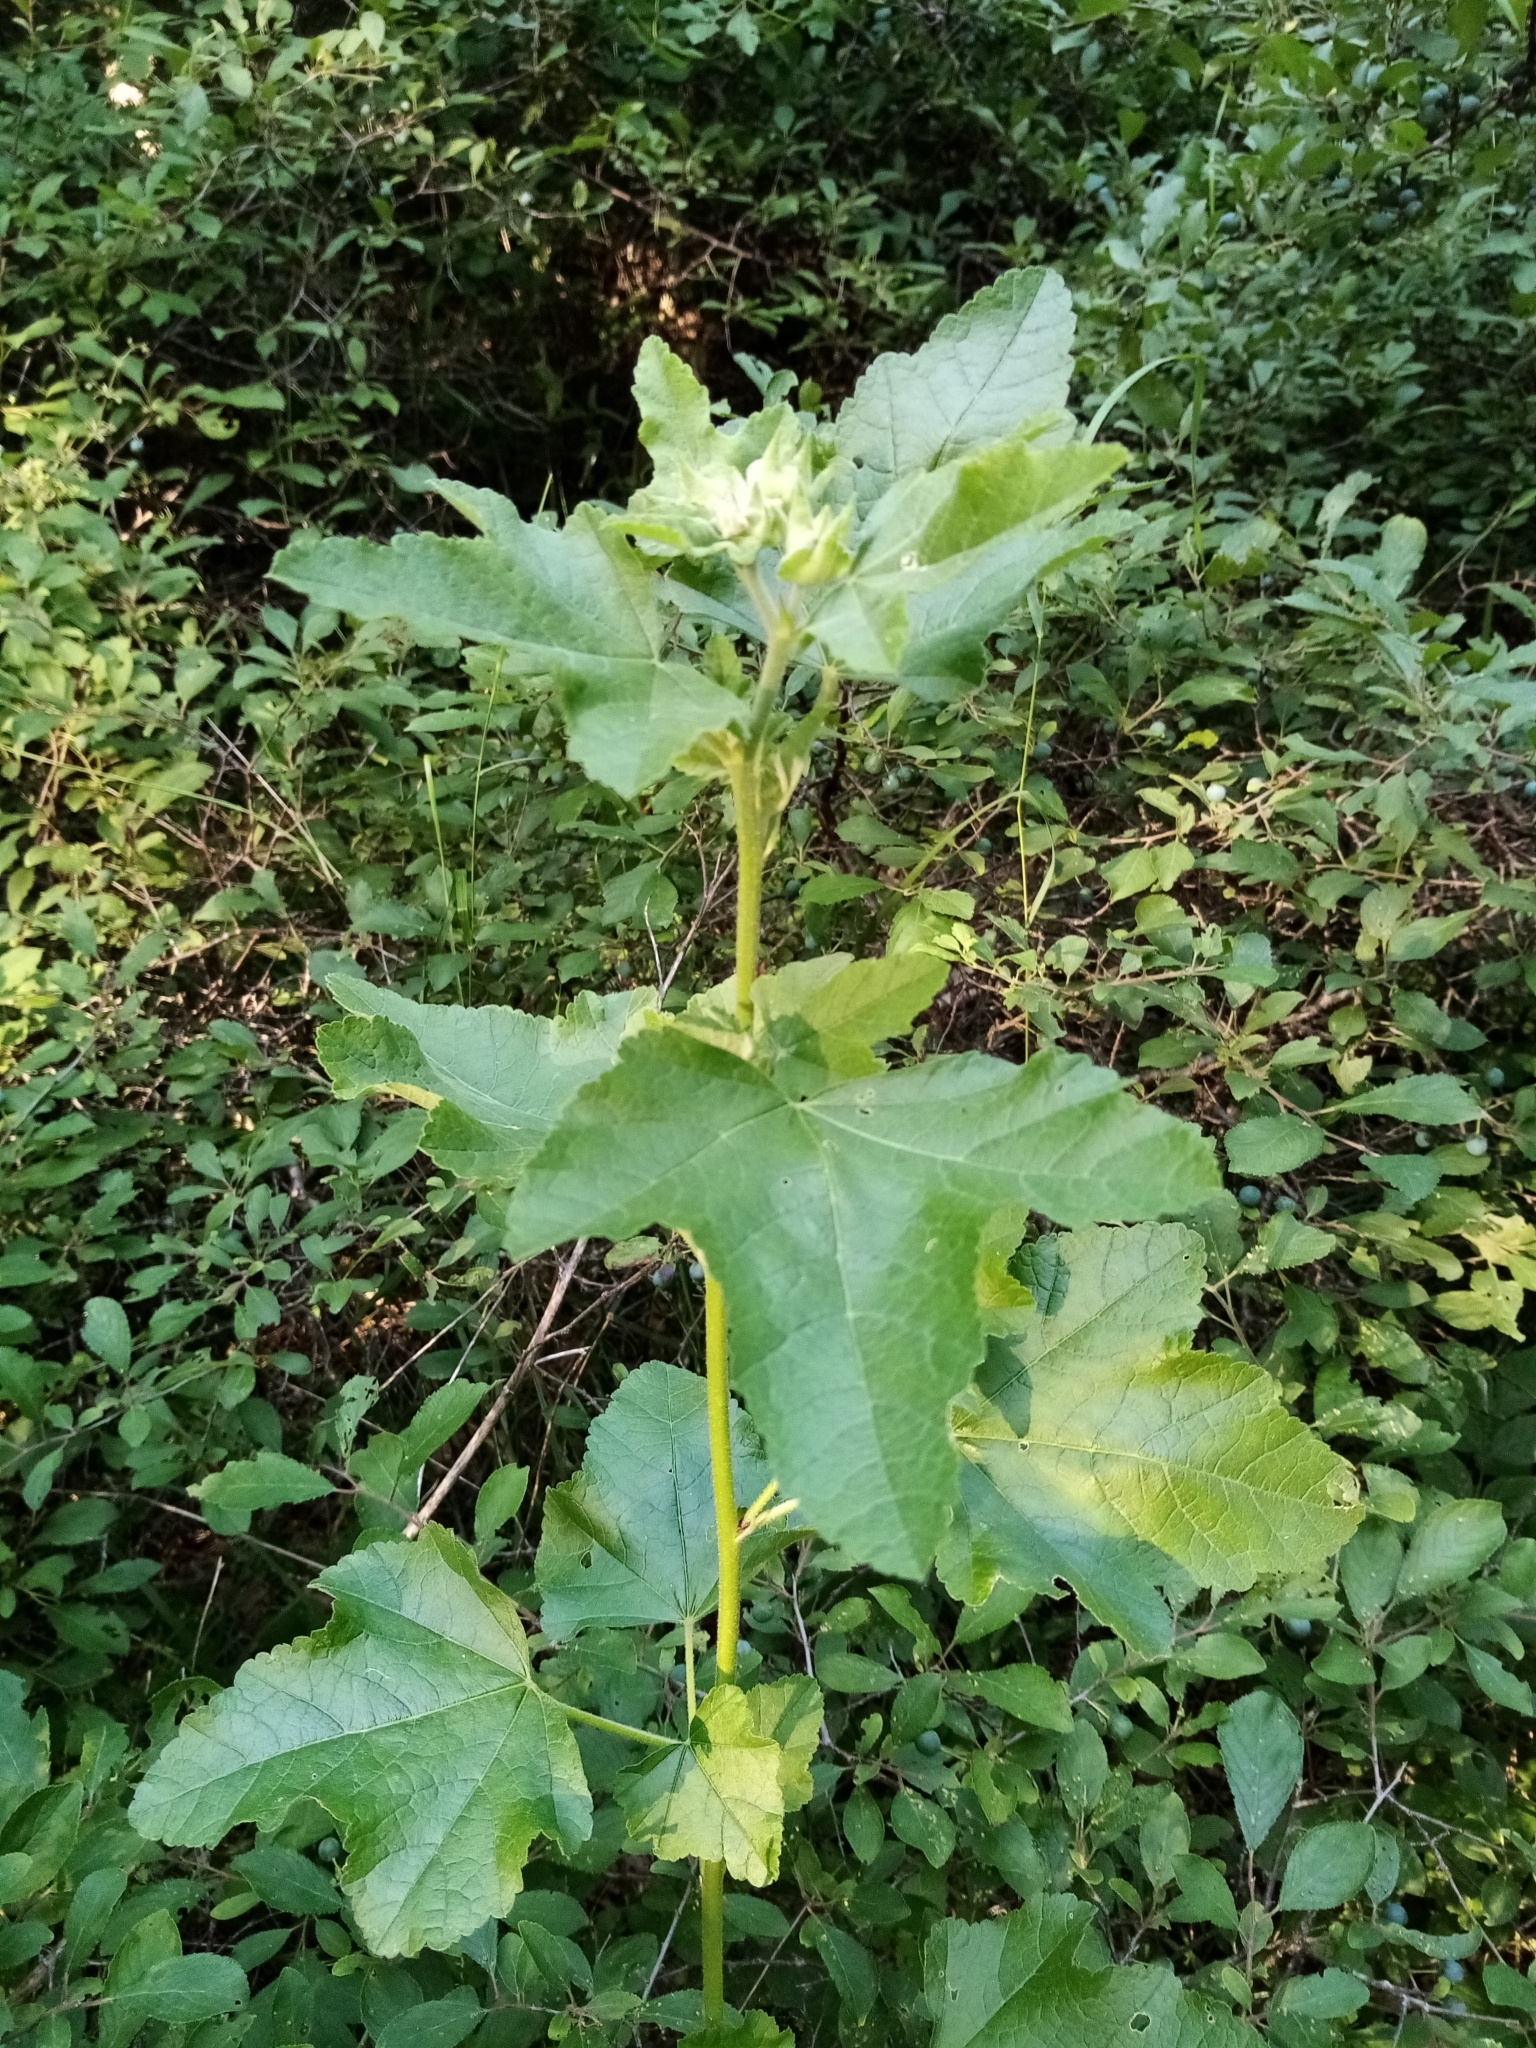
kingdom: Plantae
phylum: Tracheophyta
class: Magnoliopsida
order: Malvales
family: Malvaceae
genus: Malva
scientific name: Malva thuringiaca
